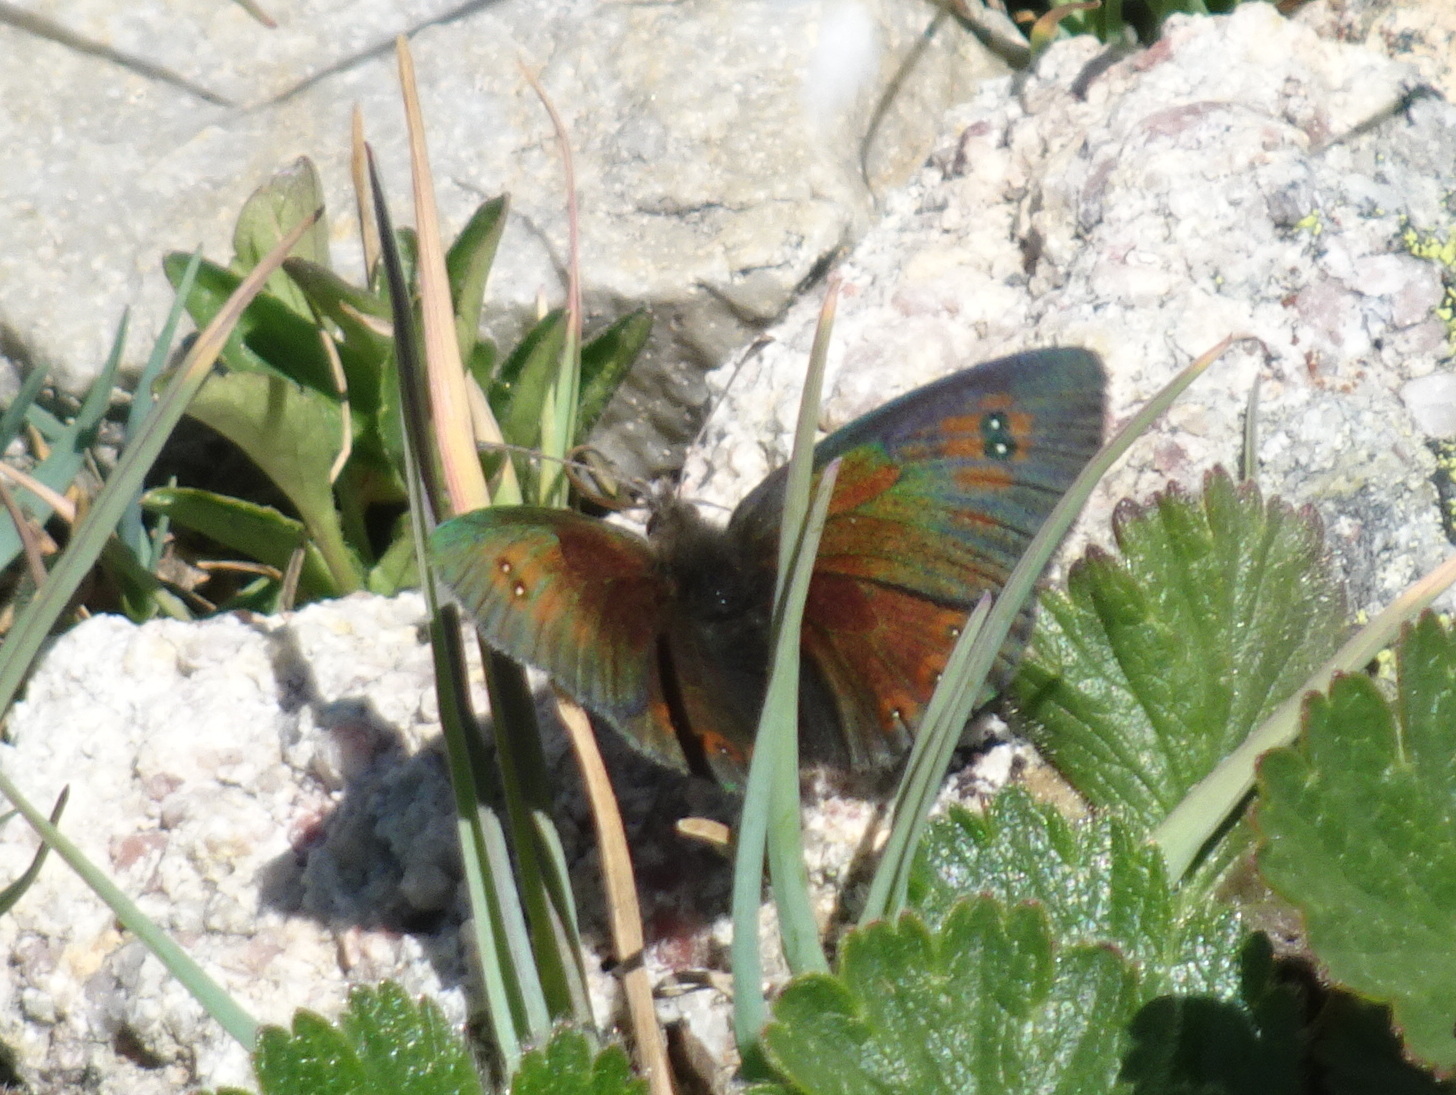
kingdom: Animalia
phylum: Arthropoda
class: Insecta
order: Lepidoptera
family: Nymphalidae
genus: Erebia
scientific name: Erebia cassioides
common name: Common brassy ringlet
